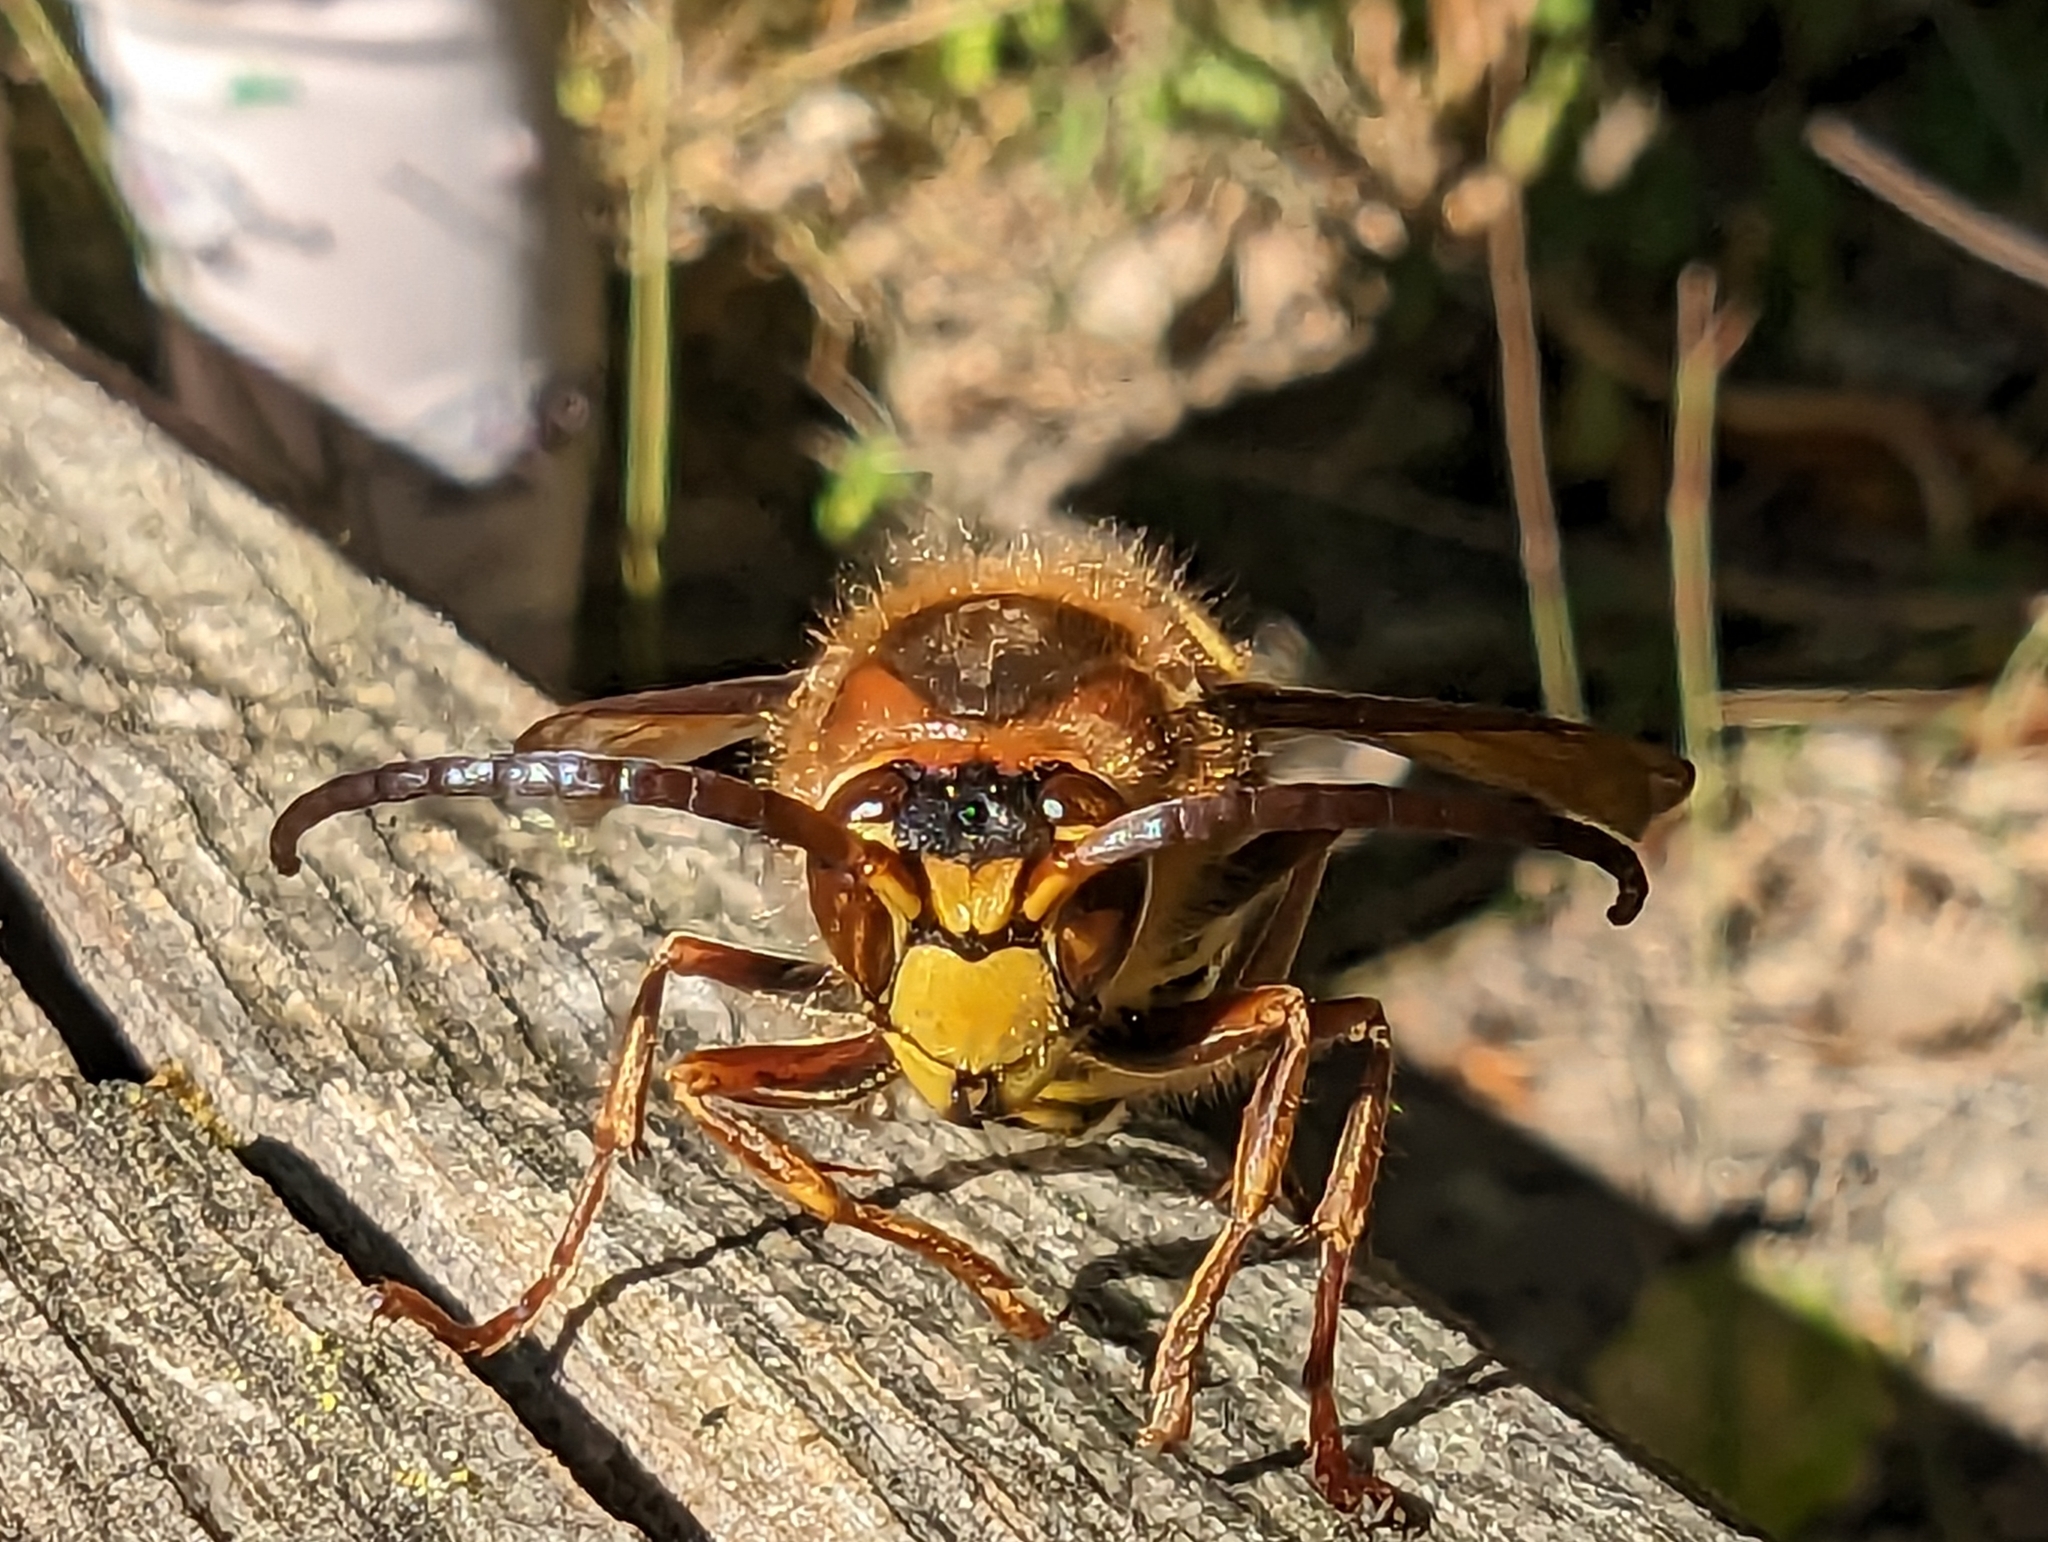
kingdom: Animalia
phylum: Arthropoda
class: Insecta
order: Hymenoptera
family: Vespidae
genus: Vespa
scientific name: Vespa crabro
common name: Hornet
